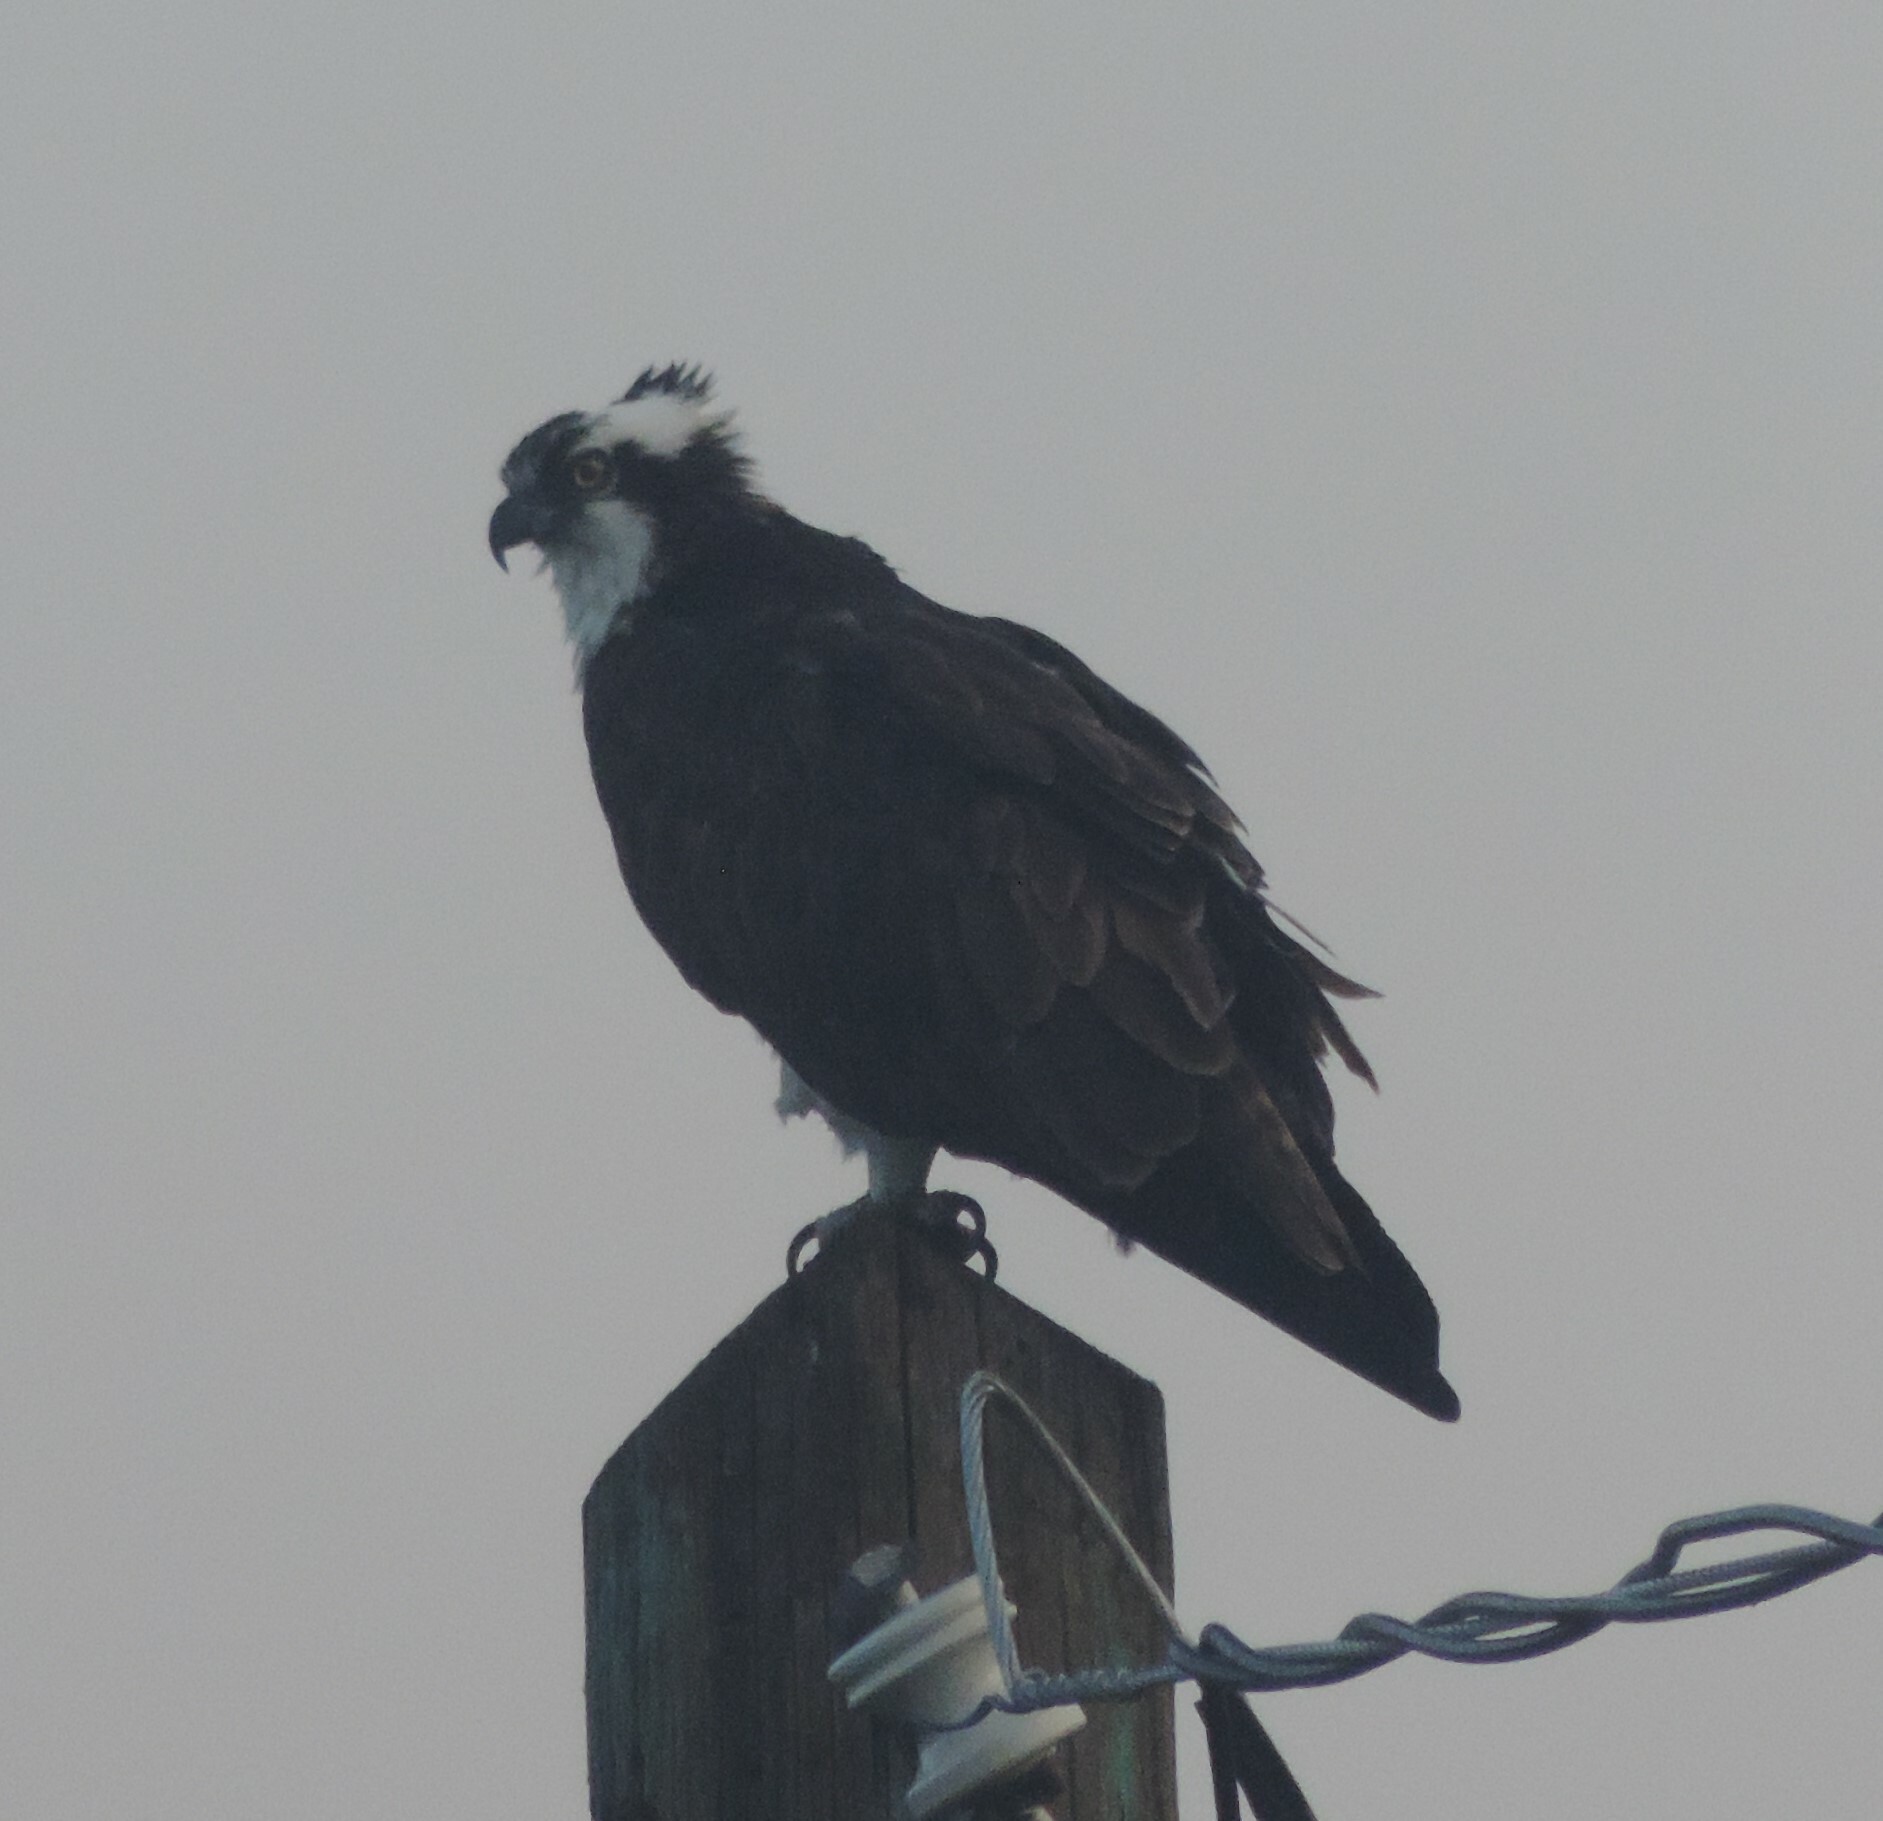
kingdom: Animalia
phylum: Chordata
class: Aves
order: Accipitriformes
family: Pandionidae
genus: Pandion
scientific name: Pandion haliaetus
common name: Osprey
